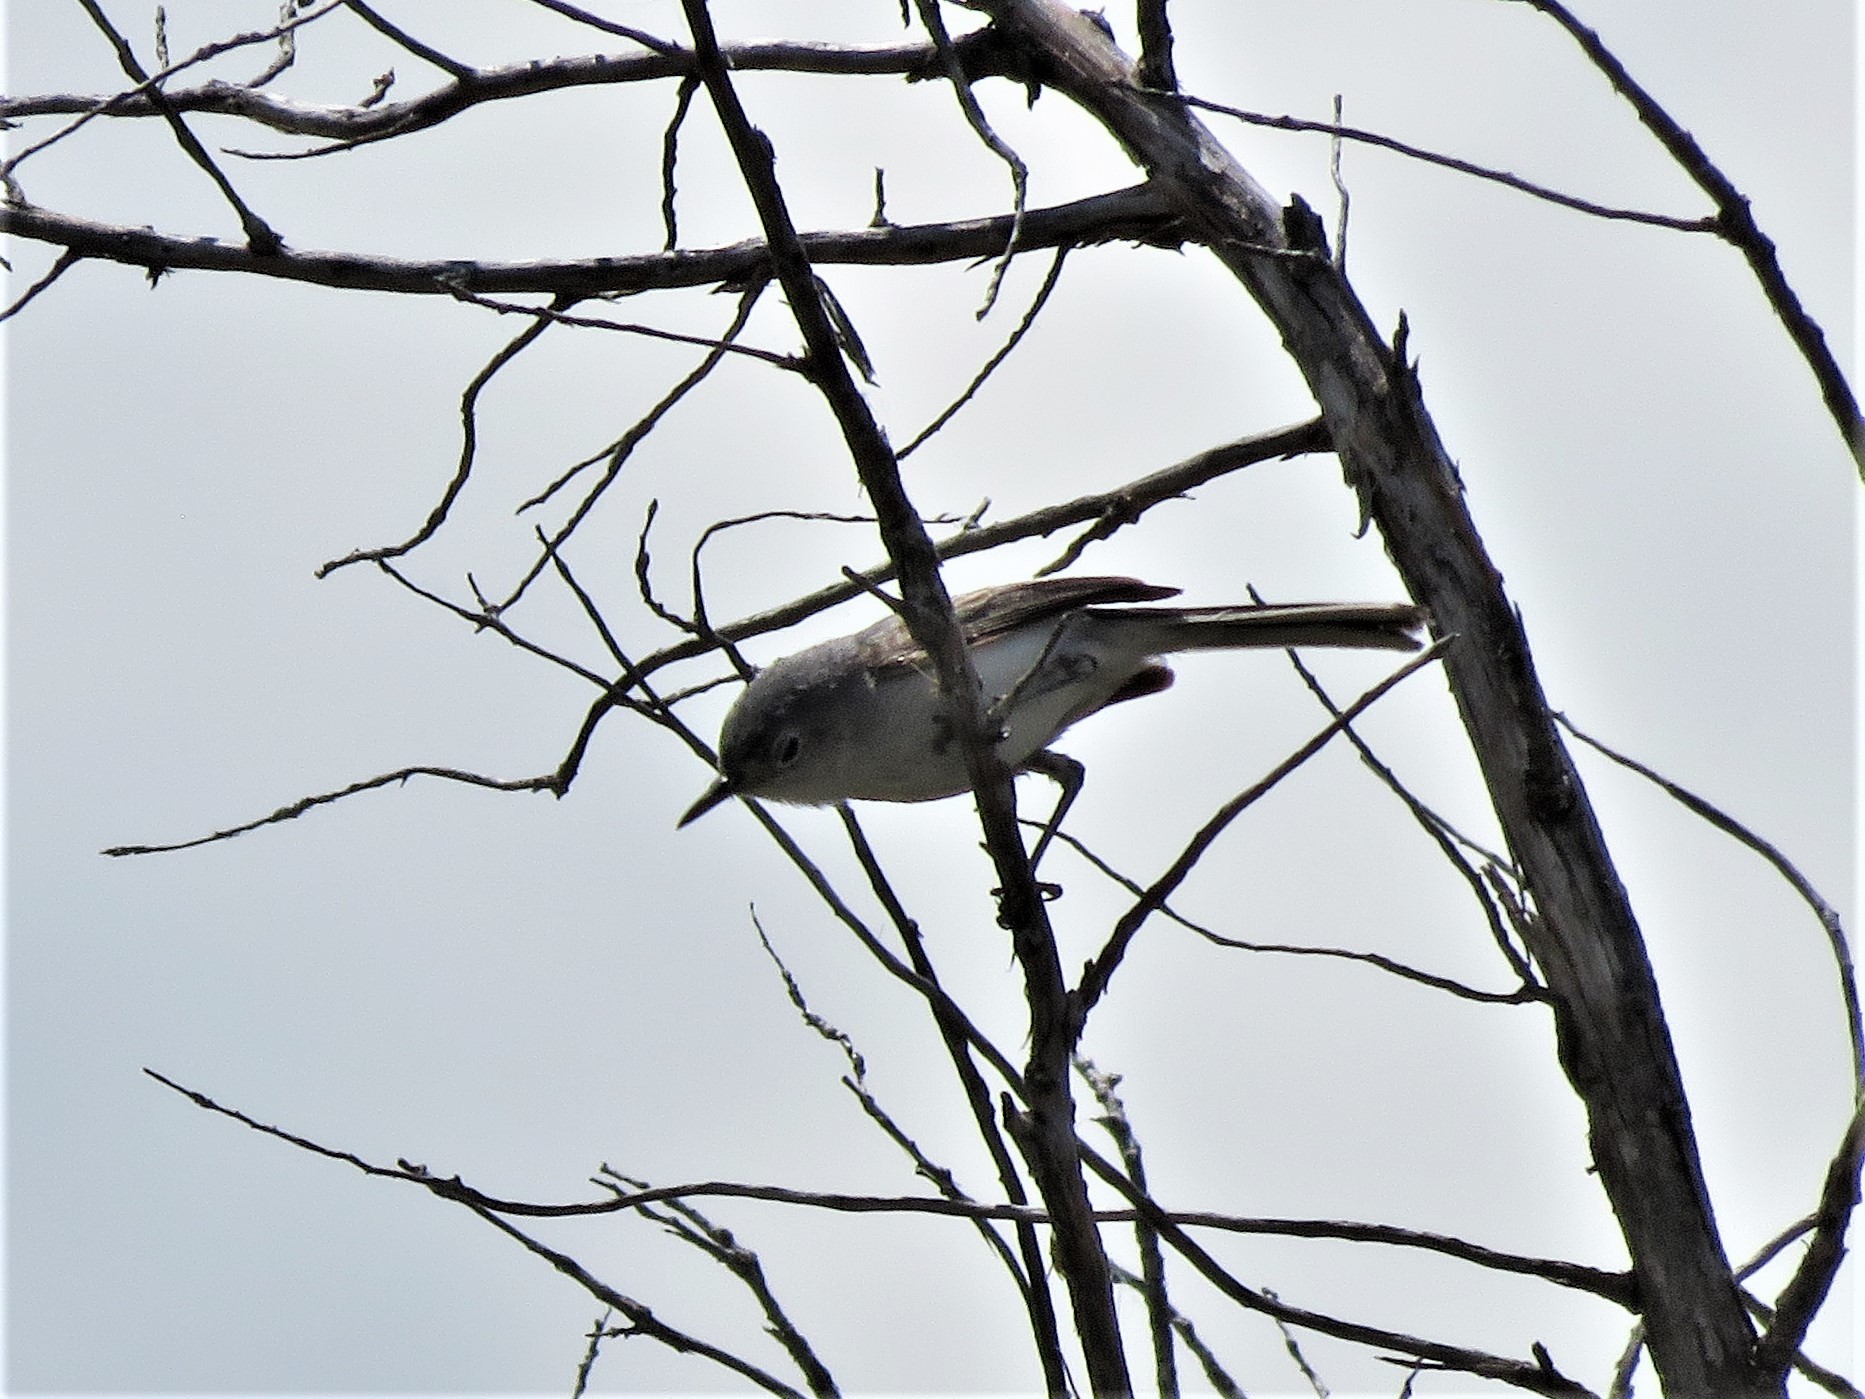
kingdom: Animalia
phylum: Chordata
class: Aves
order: Passeriformes
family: Polioptilidae
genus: Polioptila
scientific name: Polioptila caerulea
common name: Blue-gray gnatcatcher
